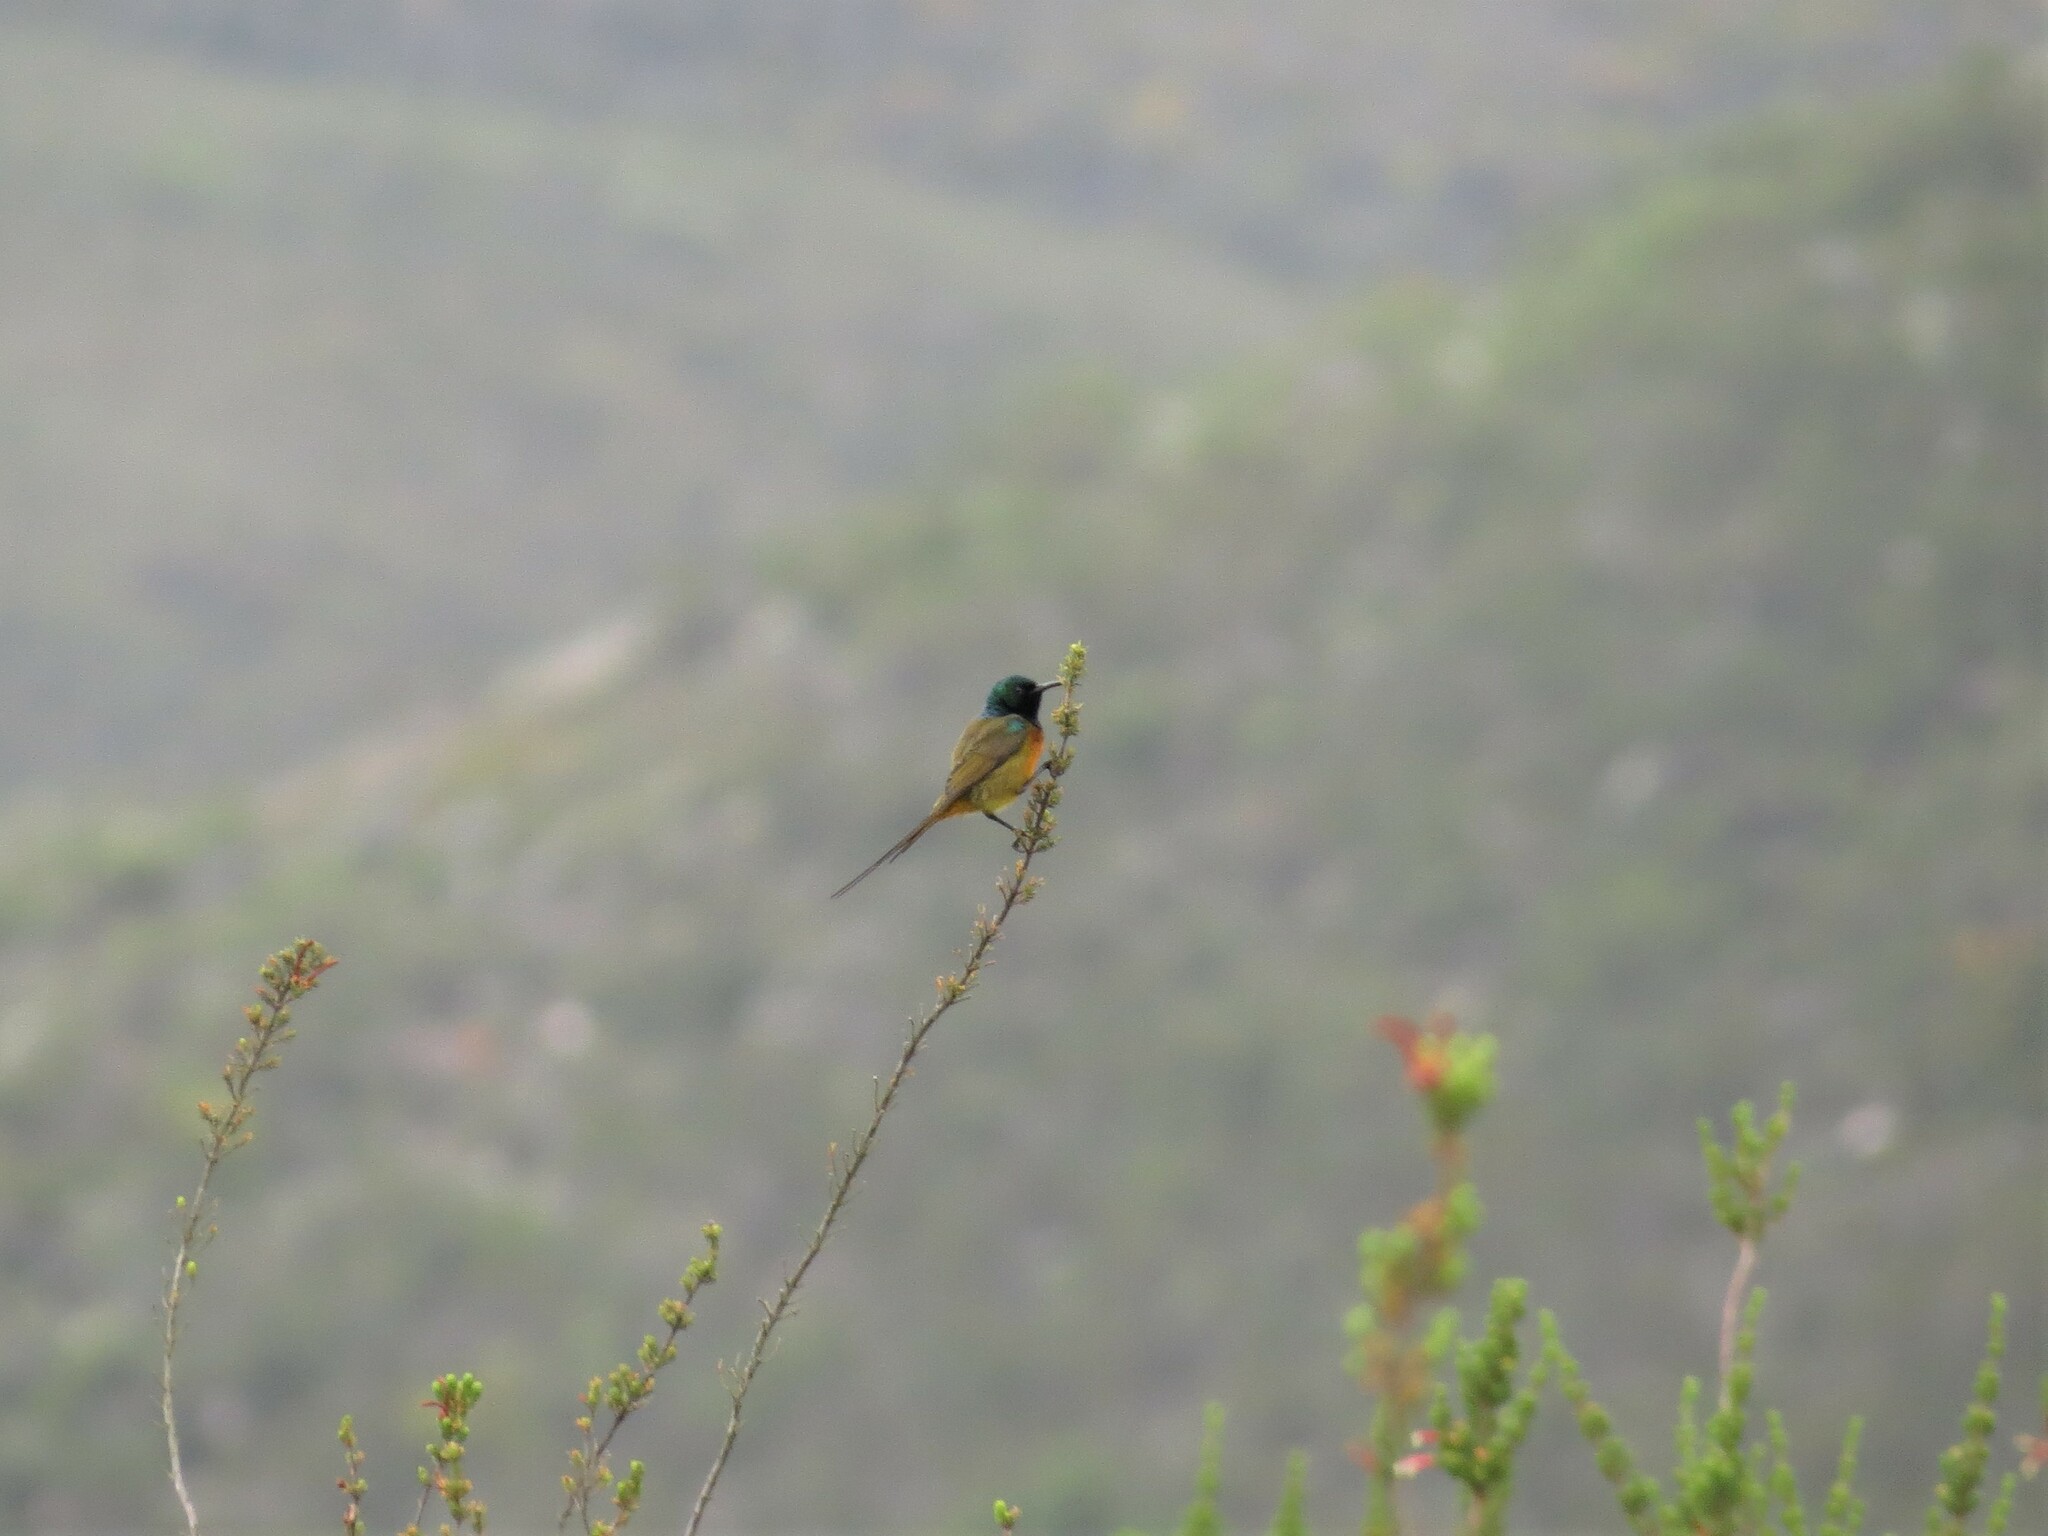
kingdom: Animalia
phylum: Chordata
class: Aves
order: Passeriformes
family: Nectariniidae
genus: Anthobaphes
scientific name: Anthobaphes violacea
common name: Orange-breasted sunbird
